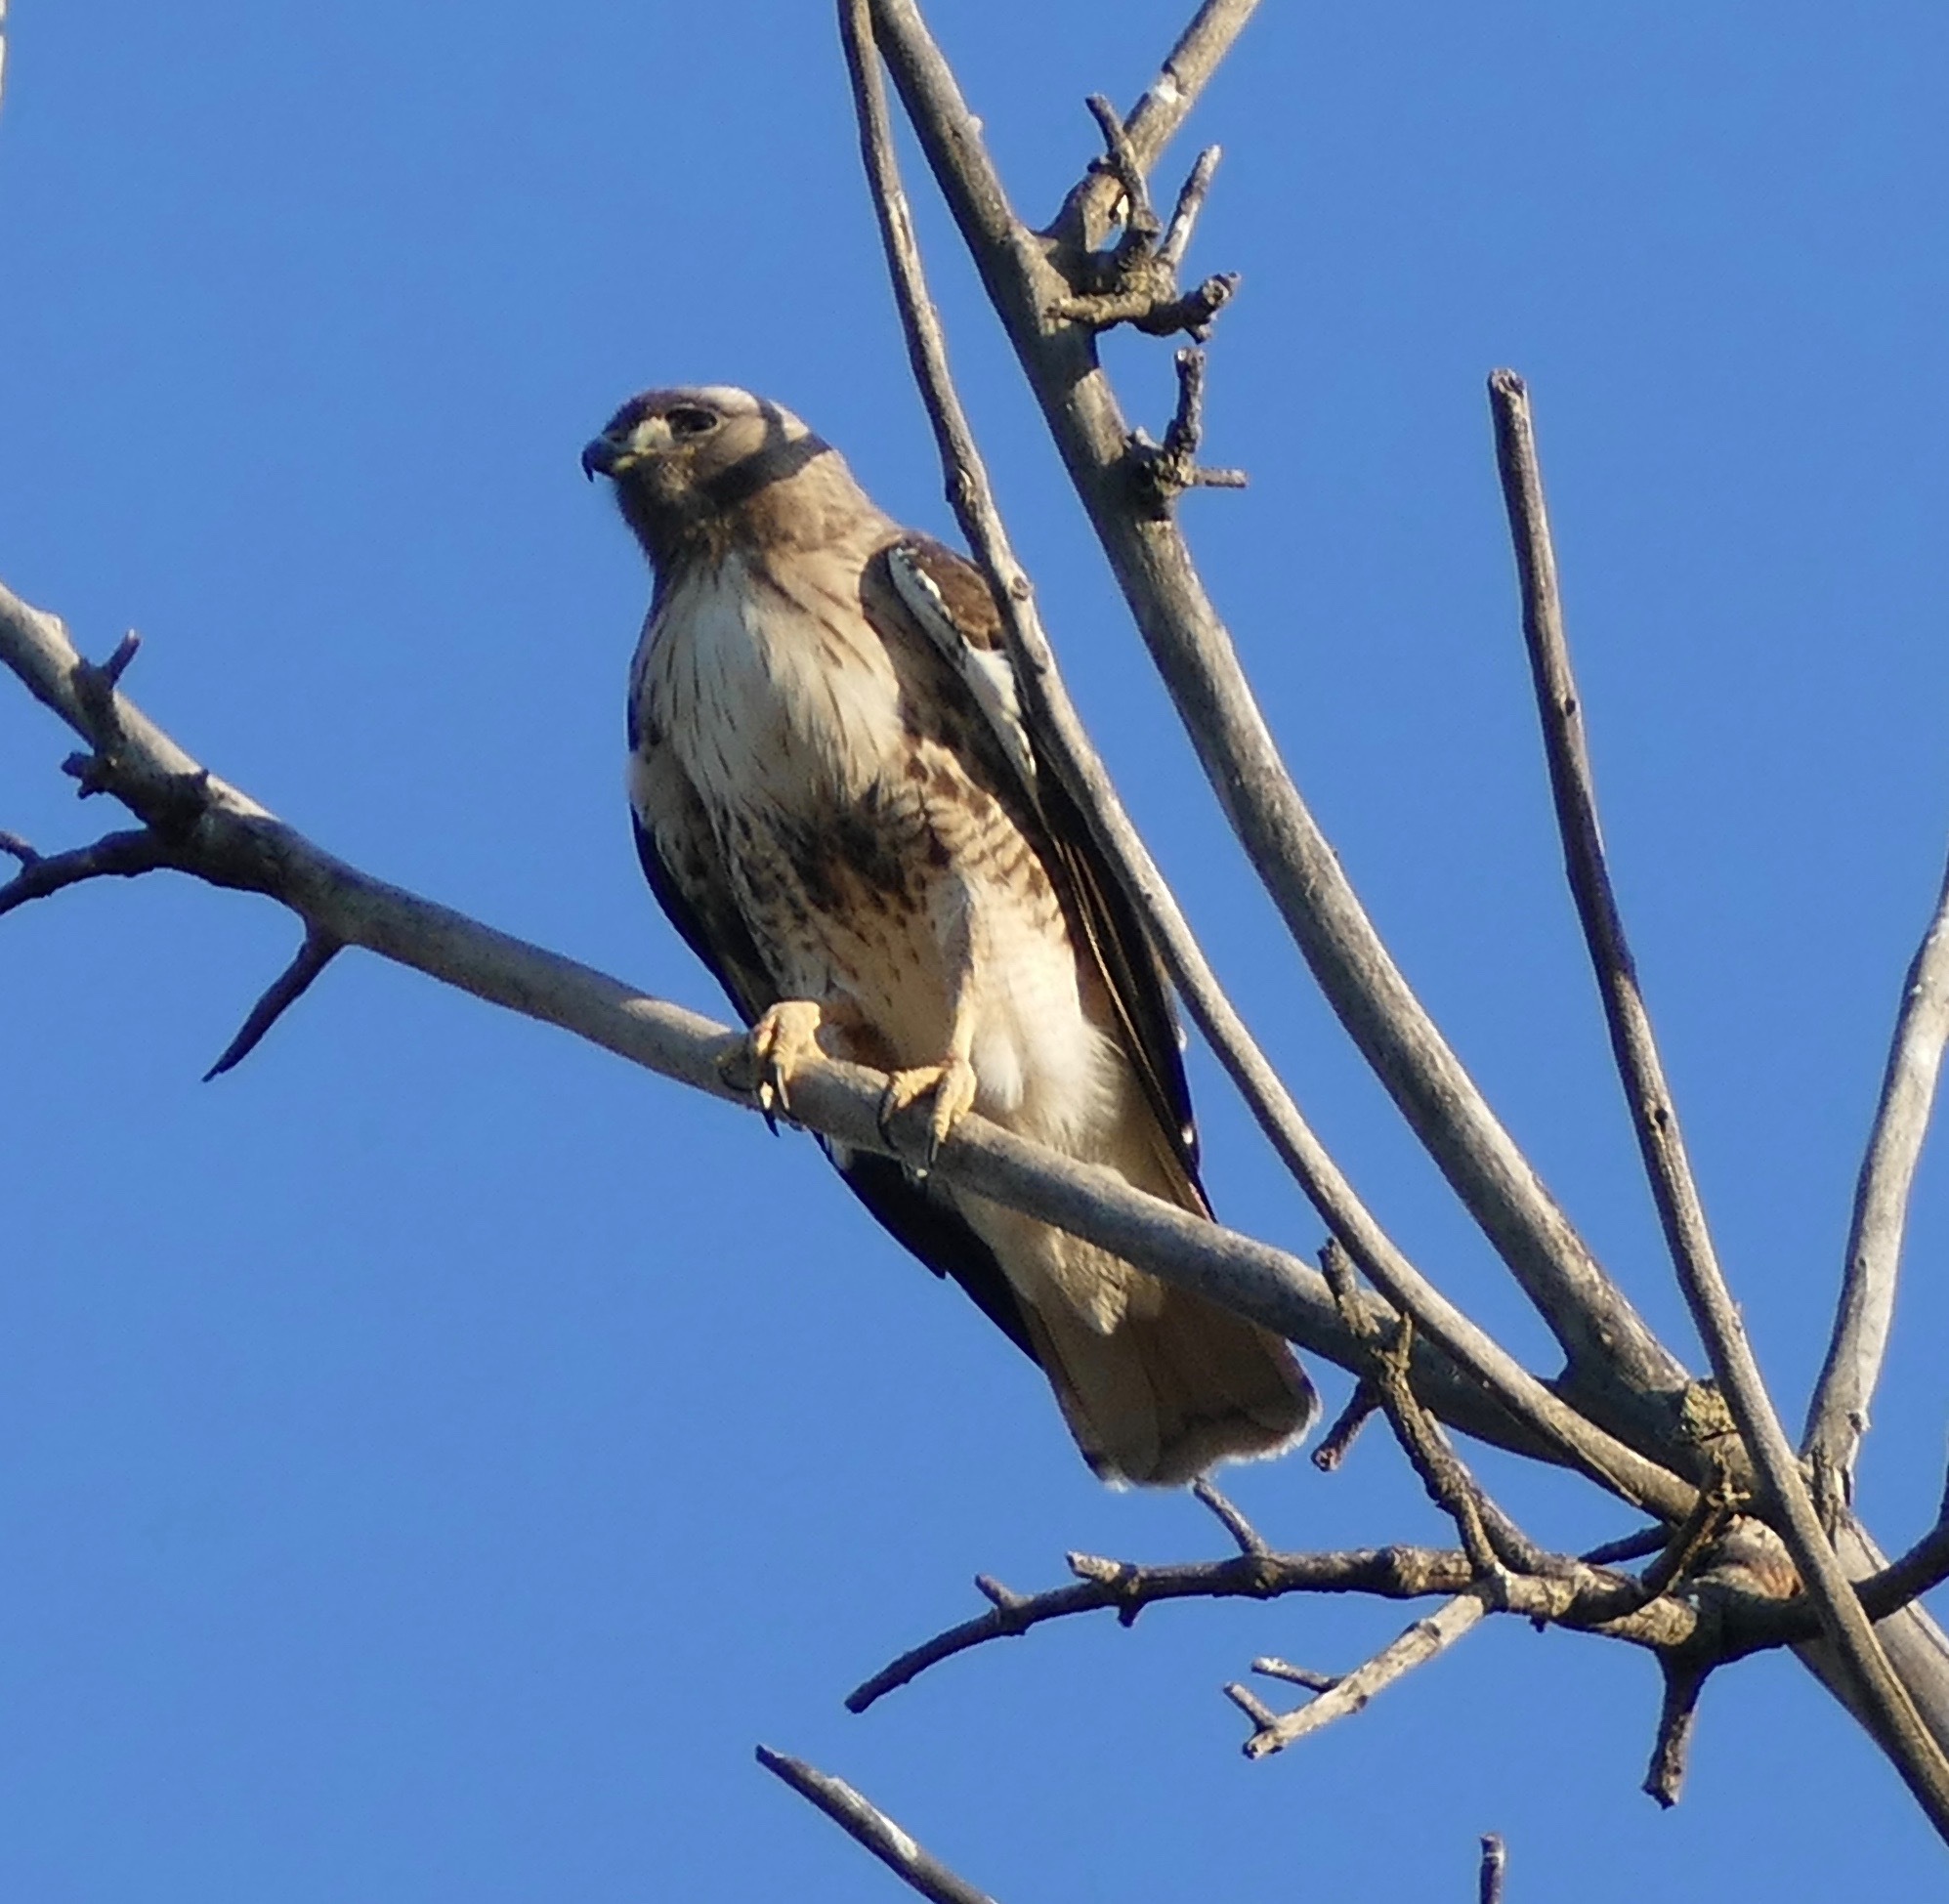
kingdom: Animalia
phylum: Chordata
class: Aves
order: Accipitriformes
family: Accipitridae
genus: Buteo
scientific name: Buteo jamaicensis
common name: Red-tailed hawk
